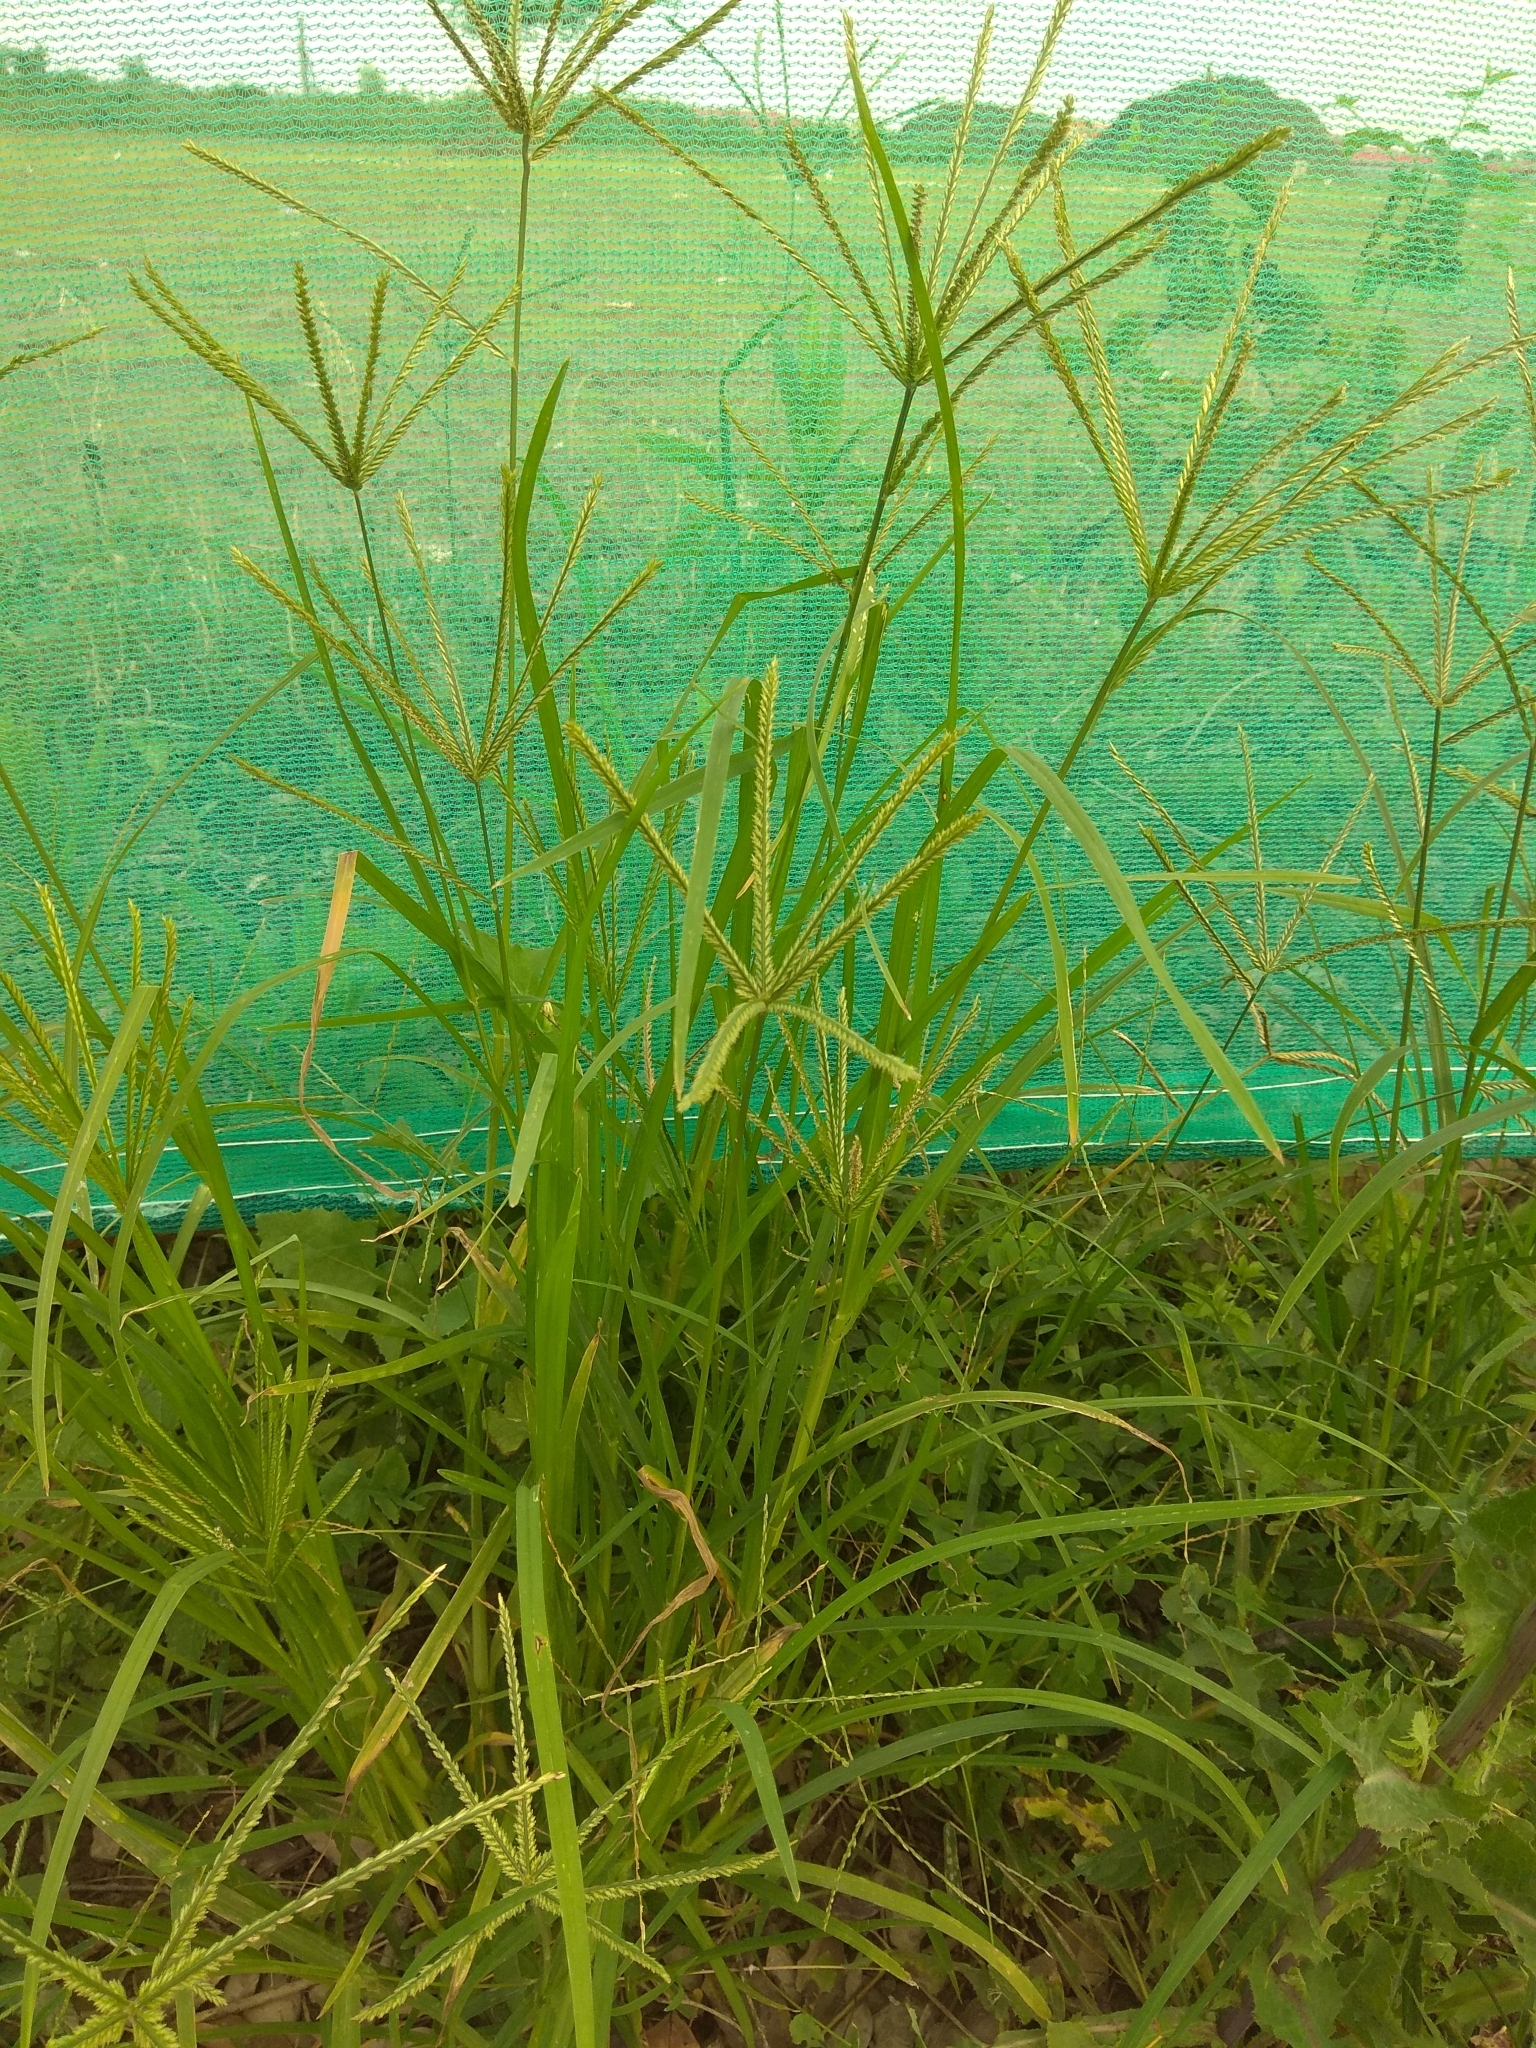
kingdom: Plantae
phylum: Tracheophyta
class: Liliopsida
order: Poales
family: Poaceae
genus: Eleusine
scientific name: Eleusine indica
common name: Yard-grass
